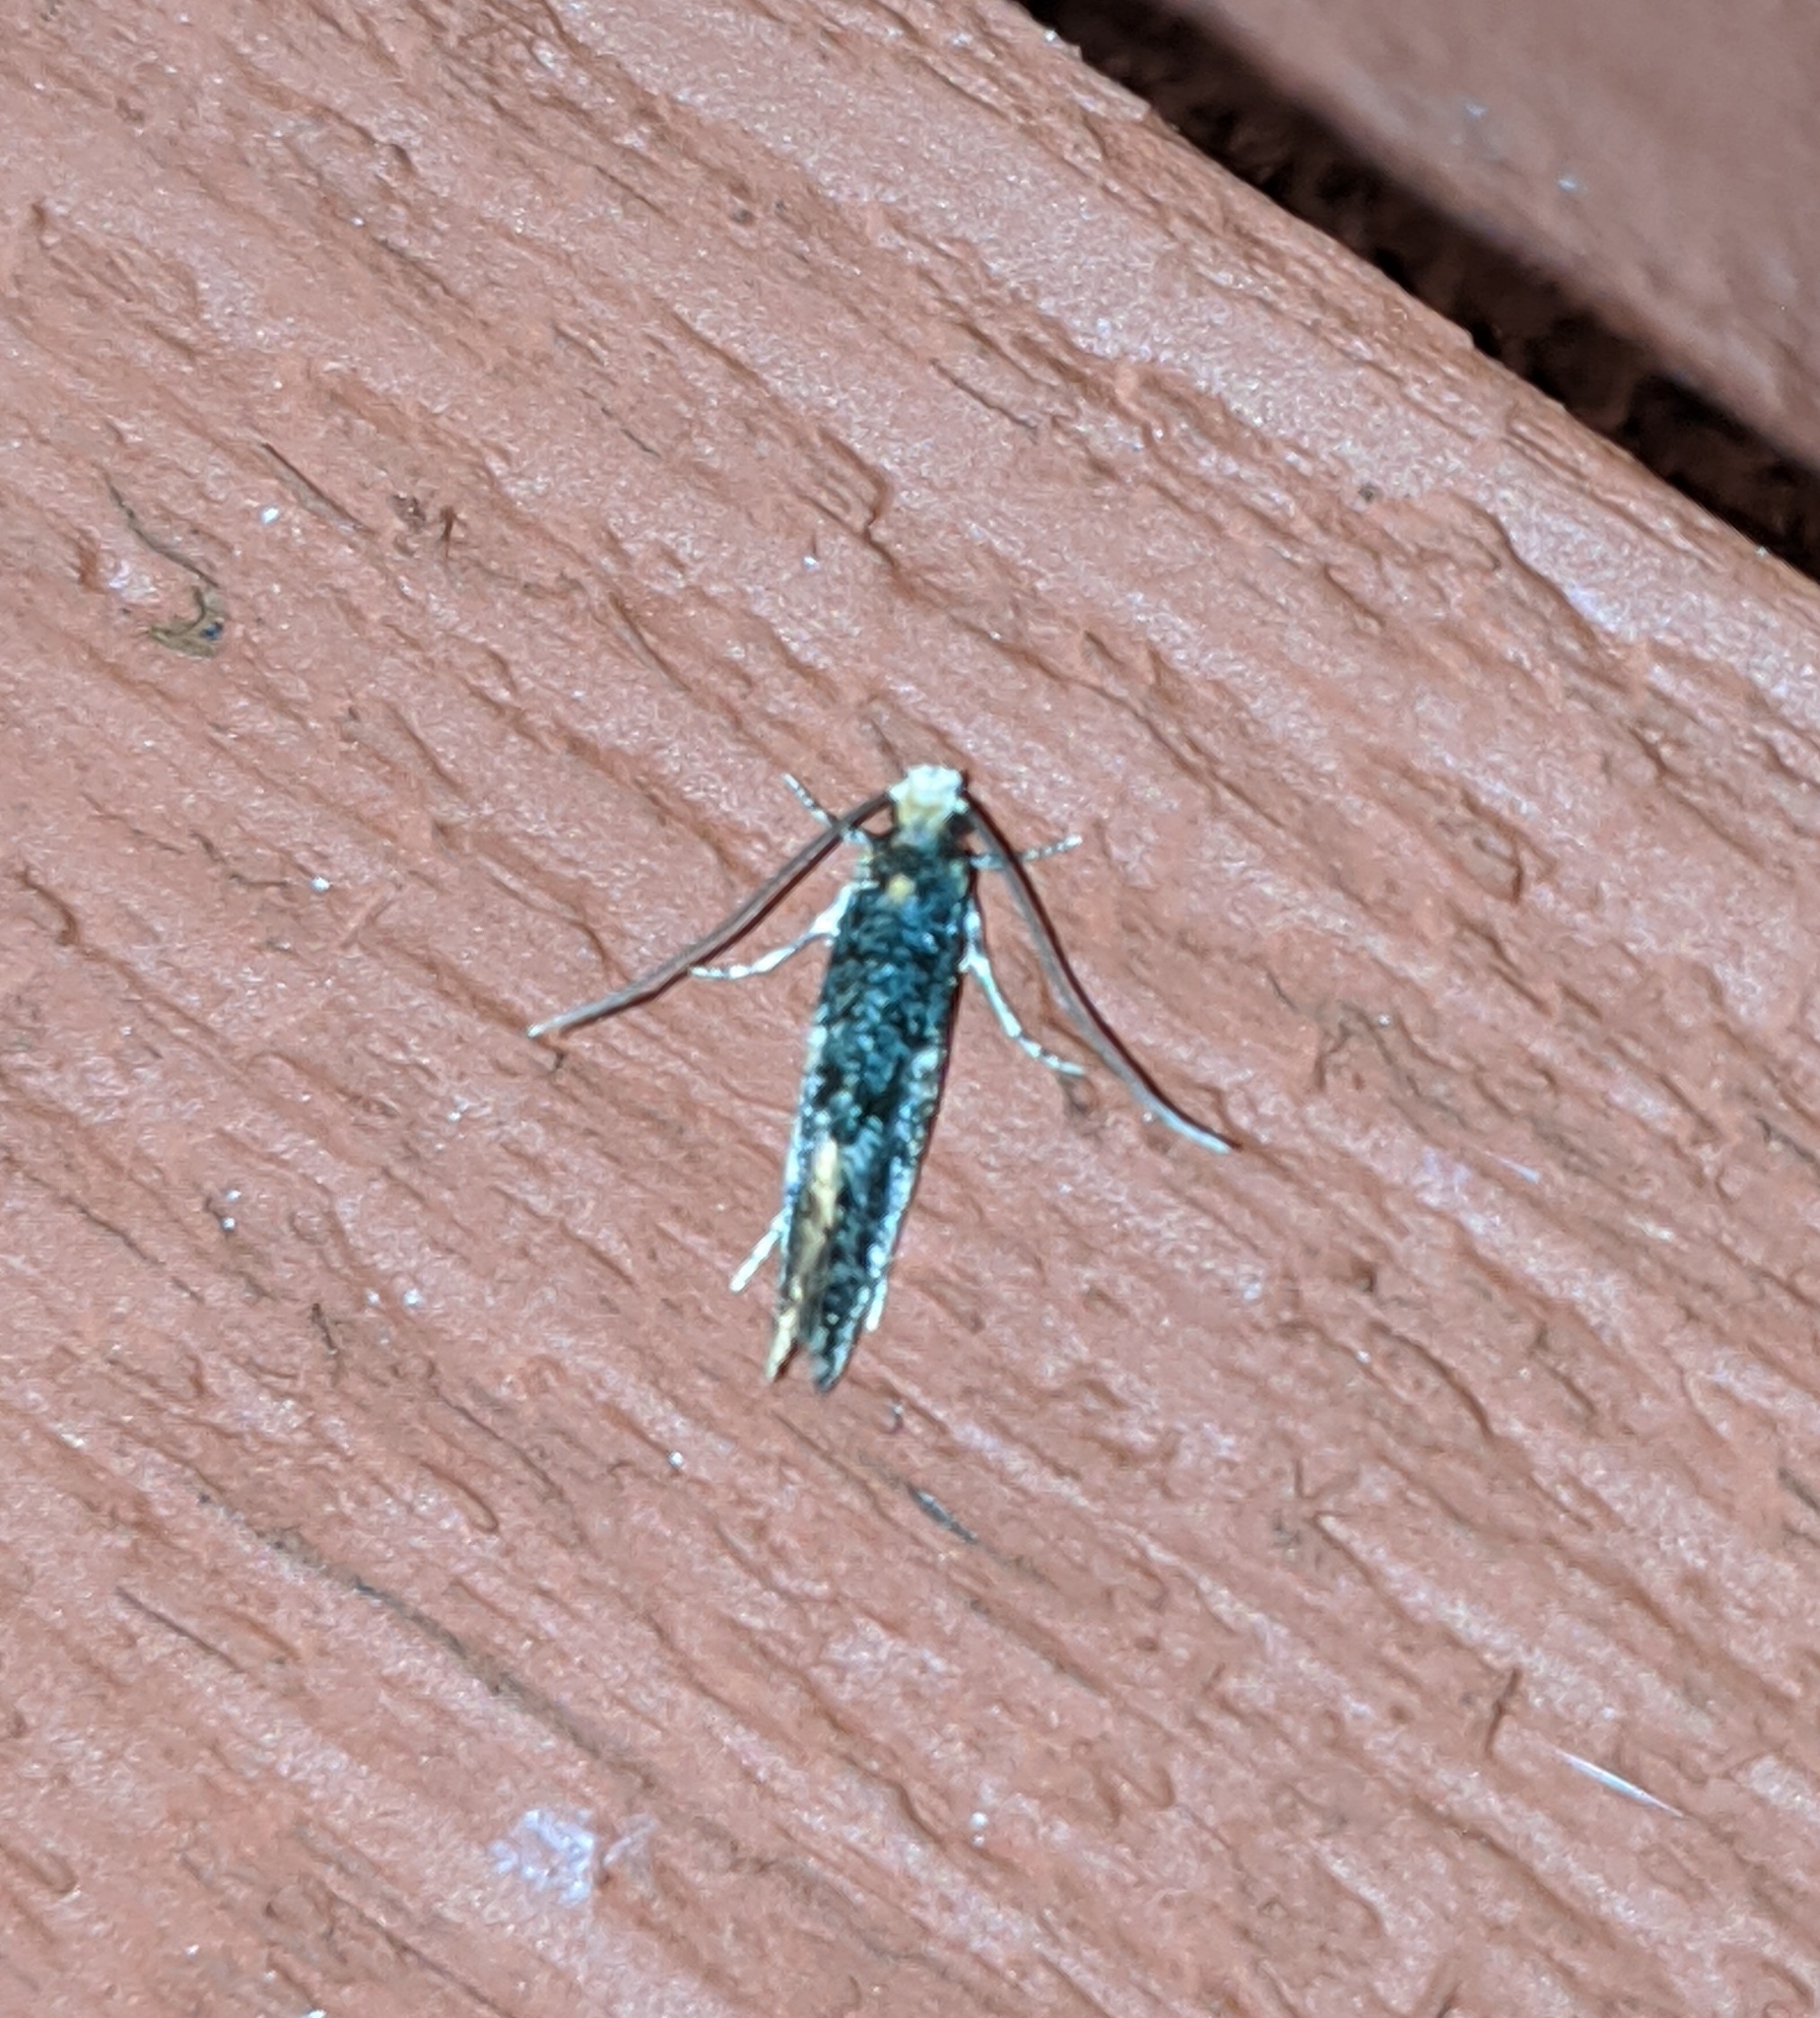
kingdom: Animalia
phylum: Arthropoda
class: Insecta
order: Lepidoptera
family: Tineidae
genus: Monopis
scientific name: Monopis weaverella
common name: Carrion moth
